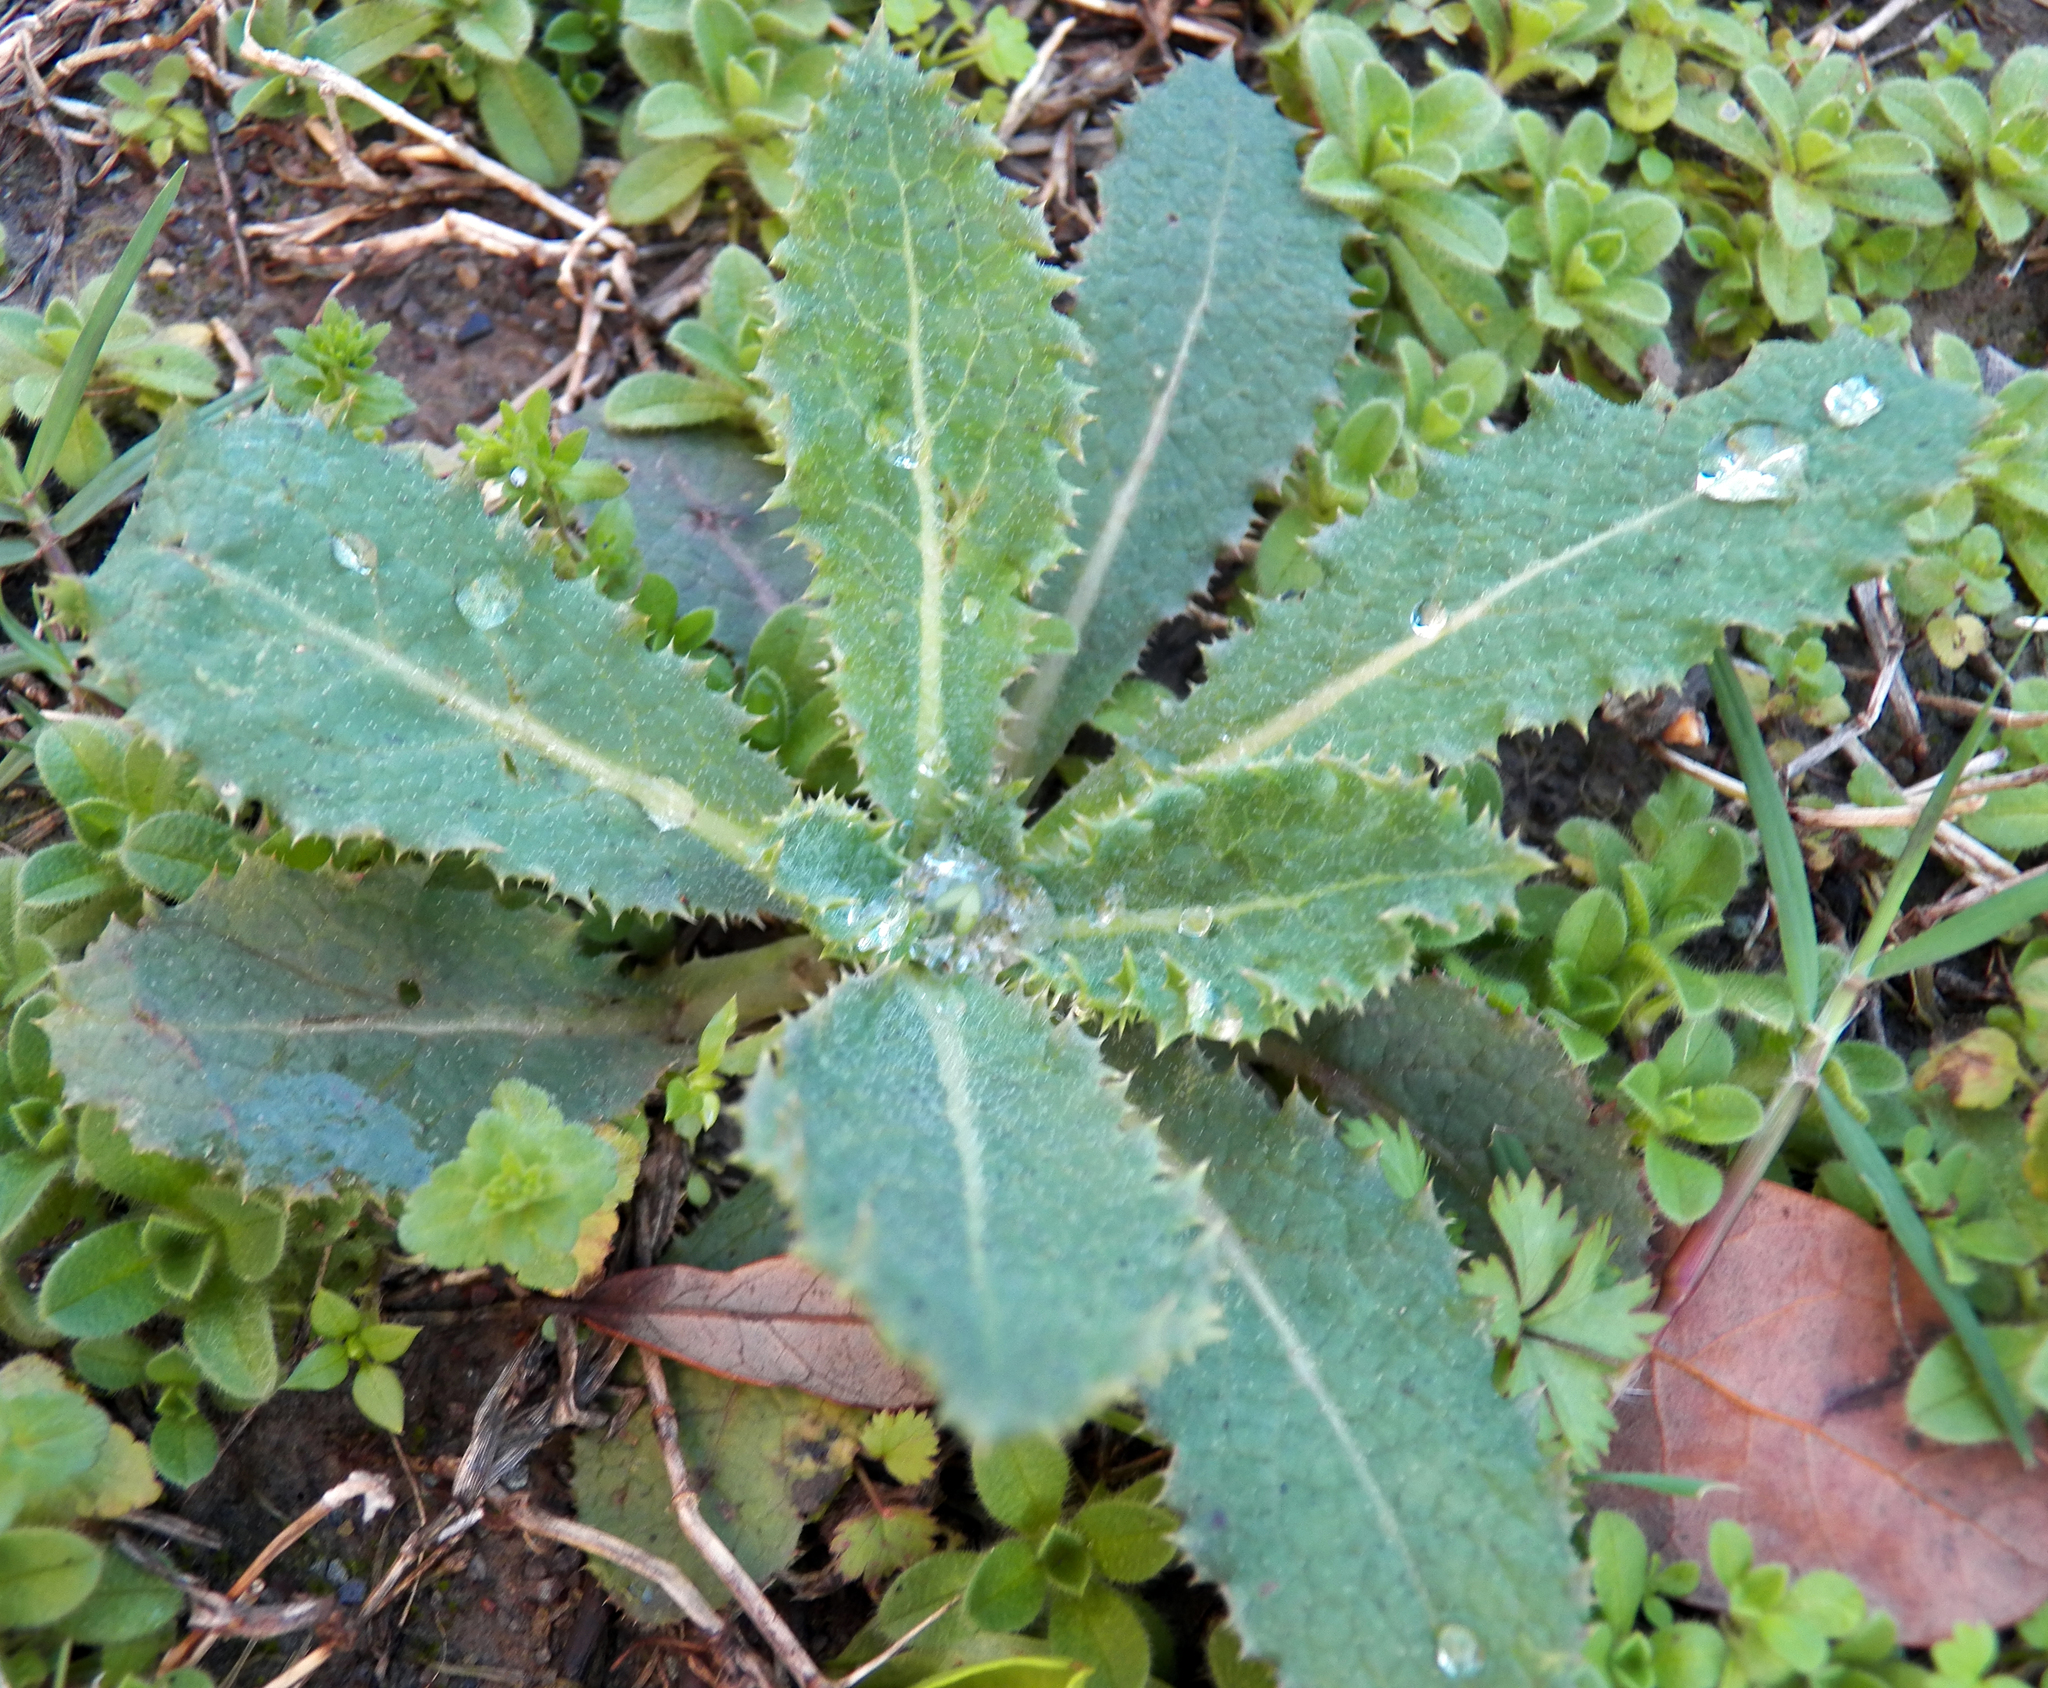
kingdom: Plantae
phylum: Tracheophyta
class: Magnoliopsida
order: Asterales
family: Asteraceae
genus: Sonchus
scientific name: Sonchus asper
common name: Prickly sow-thistle
